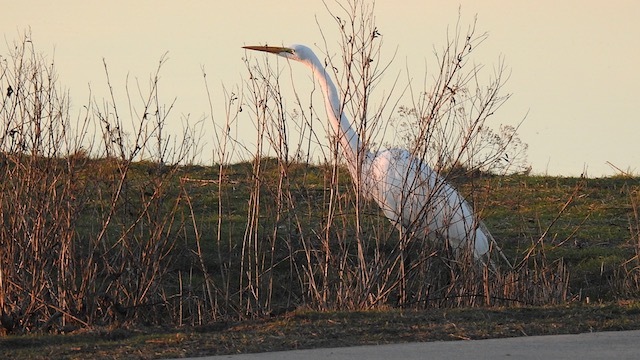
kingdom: Animalia
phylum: Chordata
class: Aves
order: Pelecaniformes
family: Ardeidae
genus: Ardea
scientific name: Ardea alba
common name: Great egret
